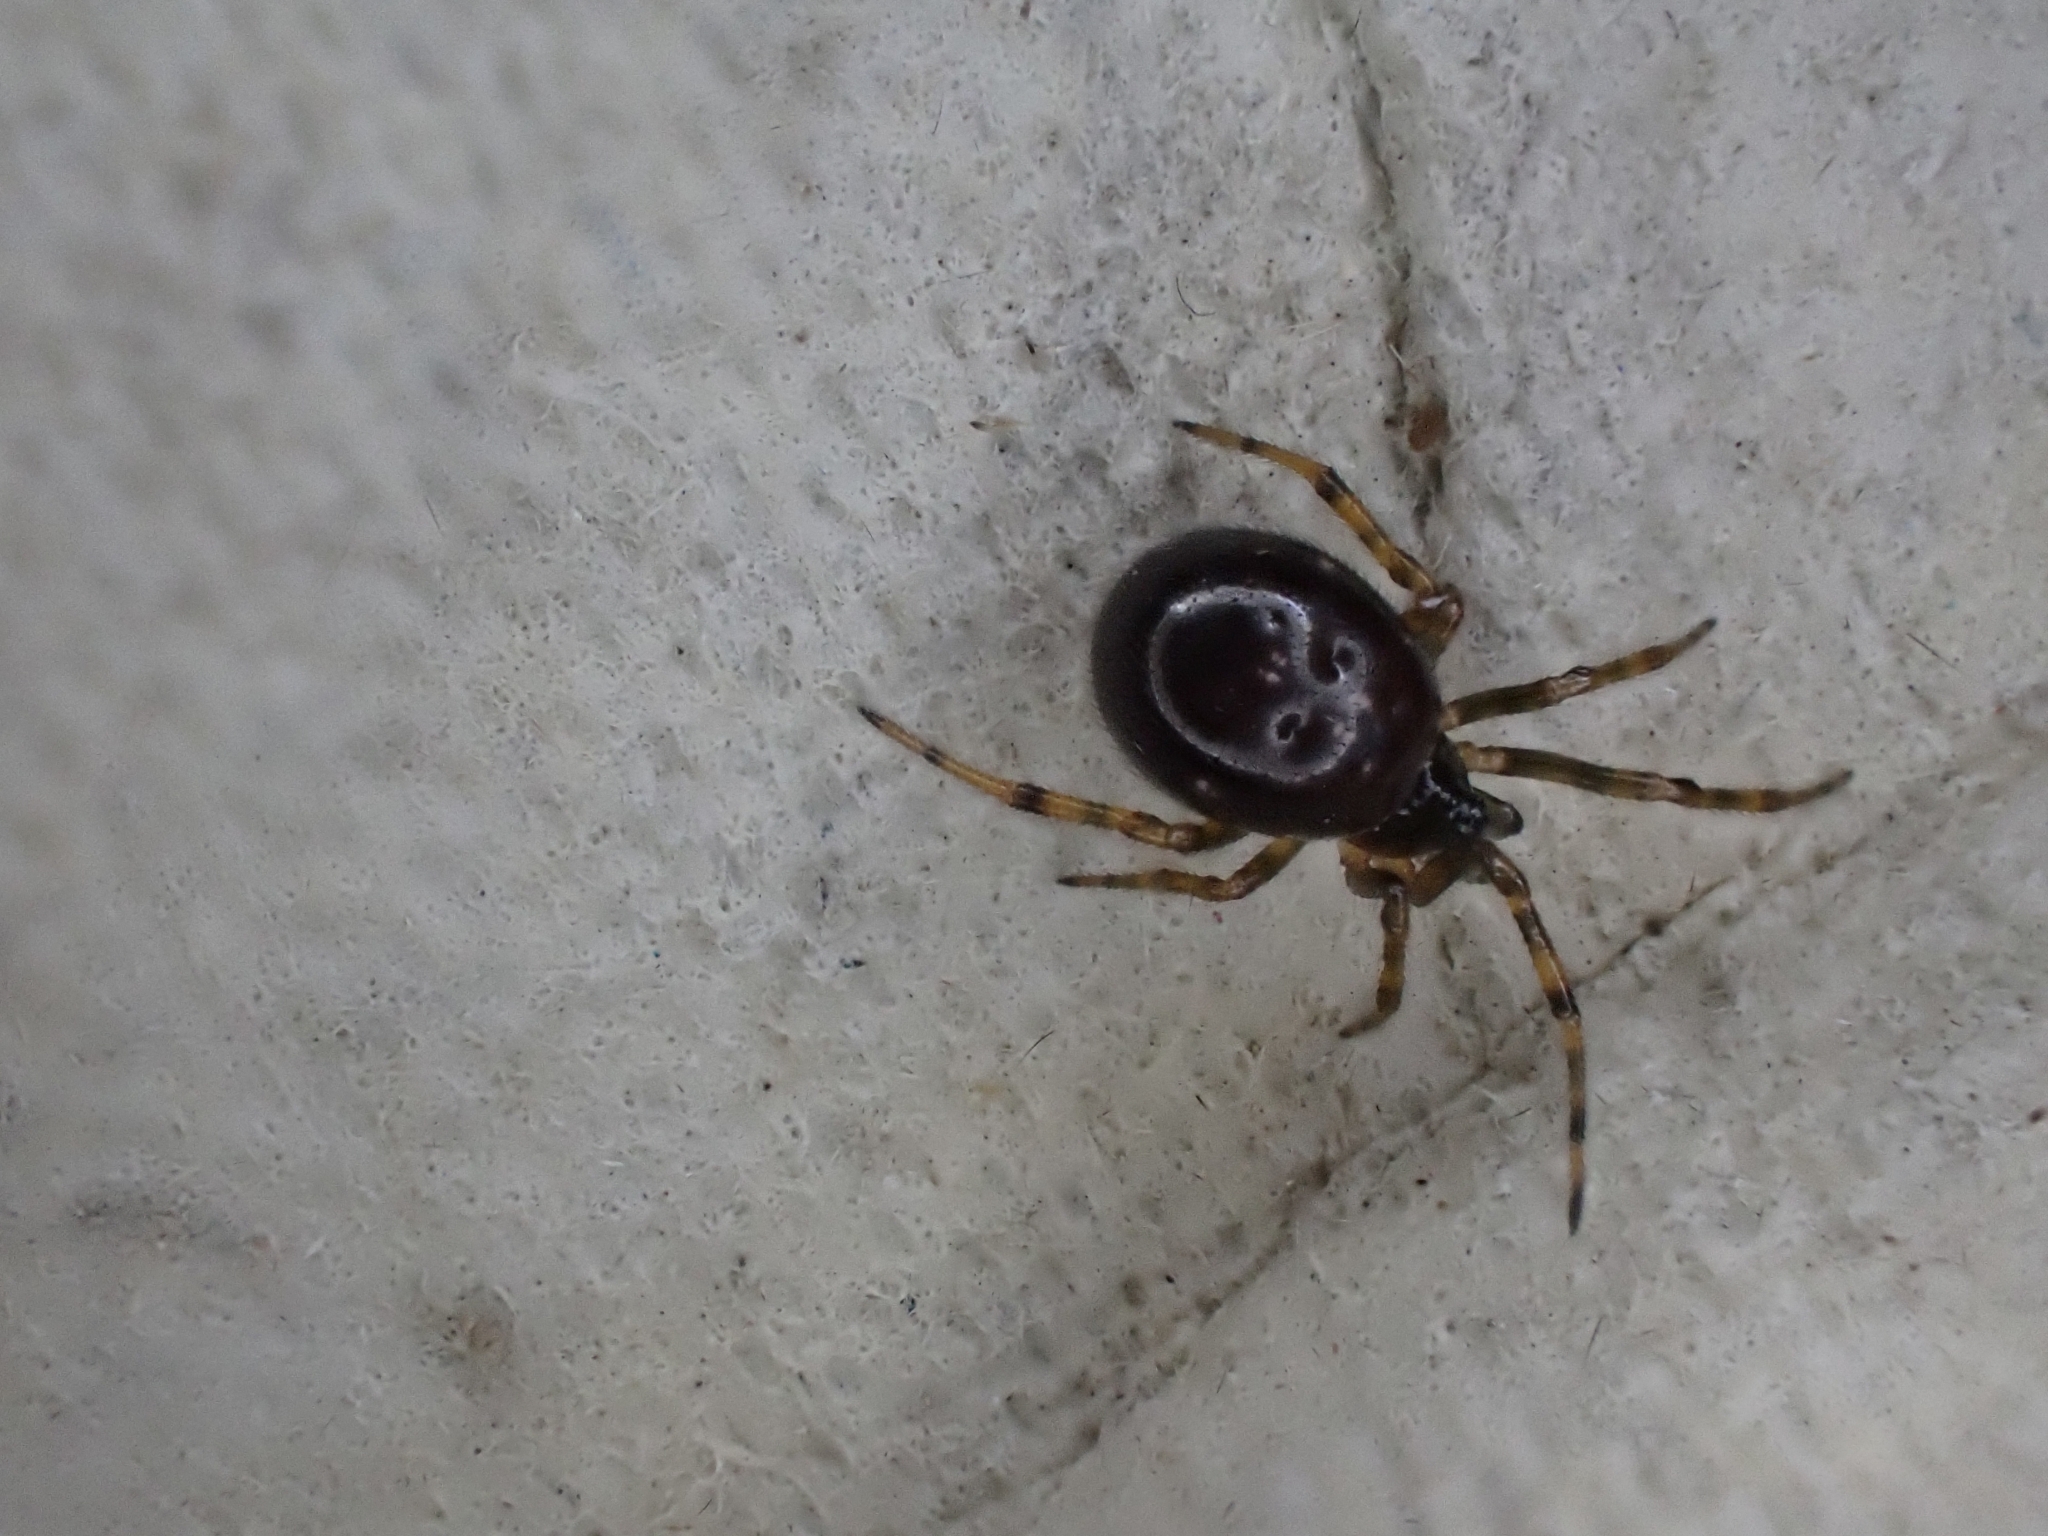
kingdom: Animalia
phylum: Arthropoda
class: Arachnida
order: Araneae
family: Theridiidae
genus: Steatoda
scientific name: Steatoda bipunctata
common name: False widow
